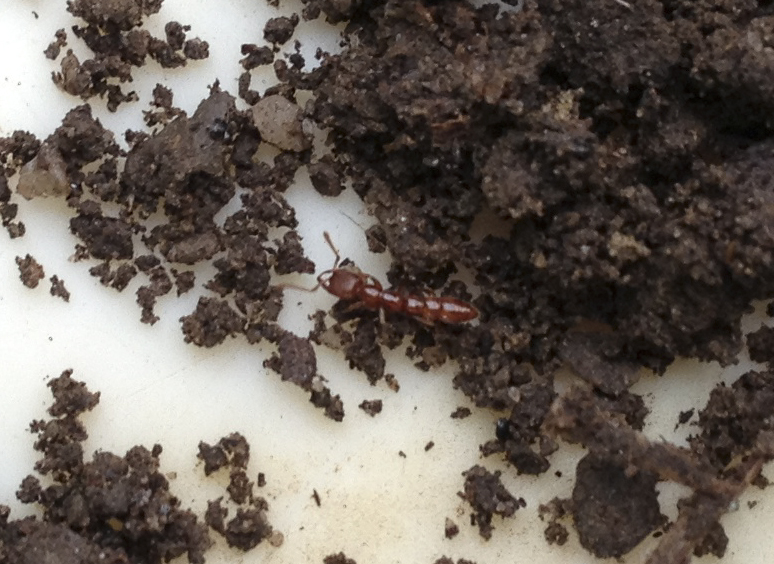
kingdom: Animalia
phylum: Arthropoda
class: Insecta
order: Hymenoptera
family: Formicidae
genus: Amblyopone
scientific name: Amblyopone denticulata
